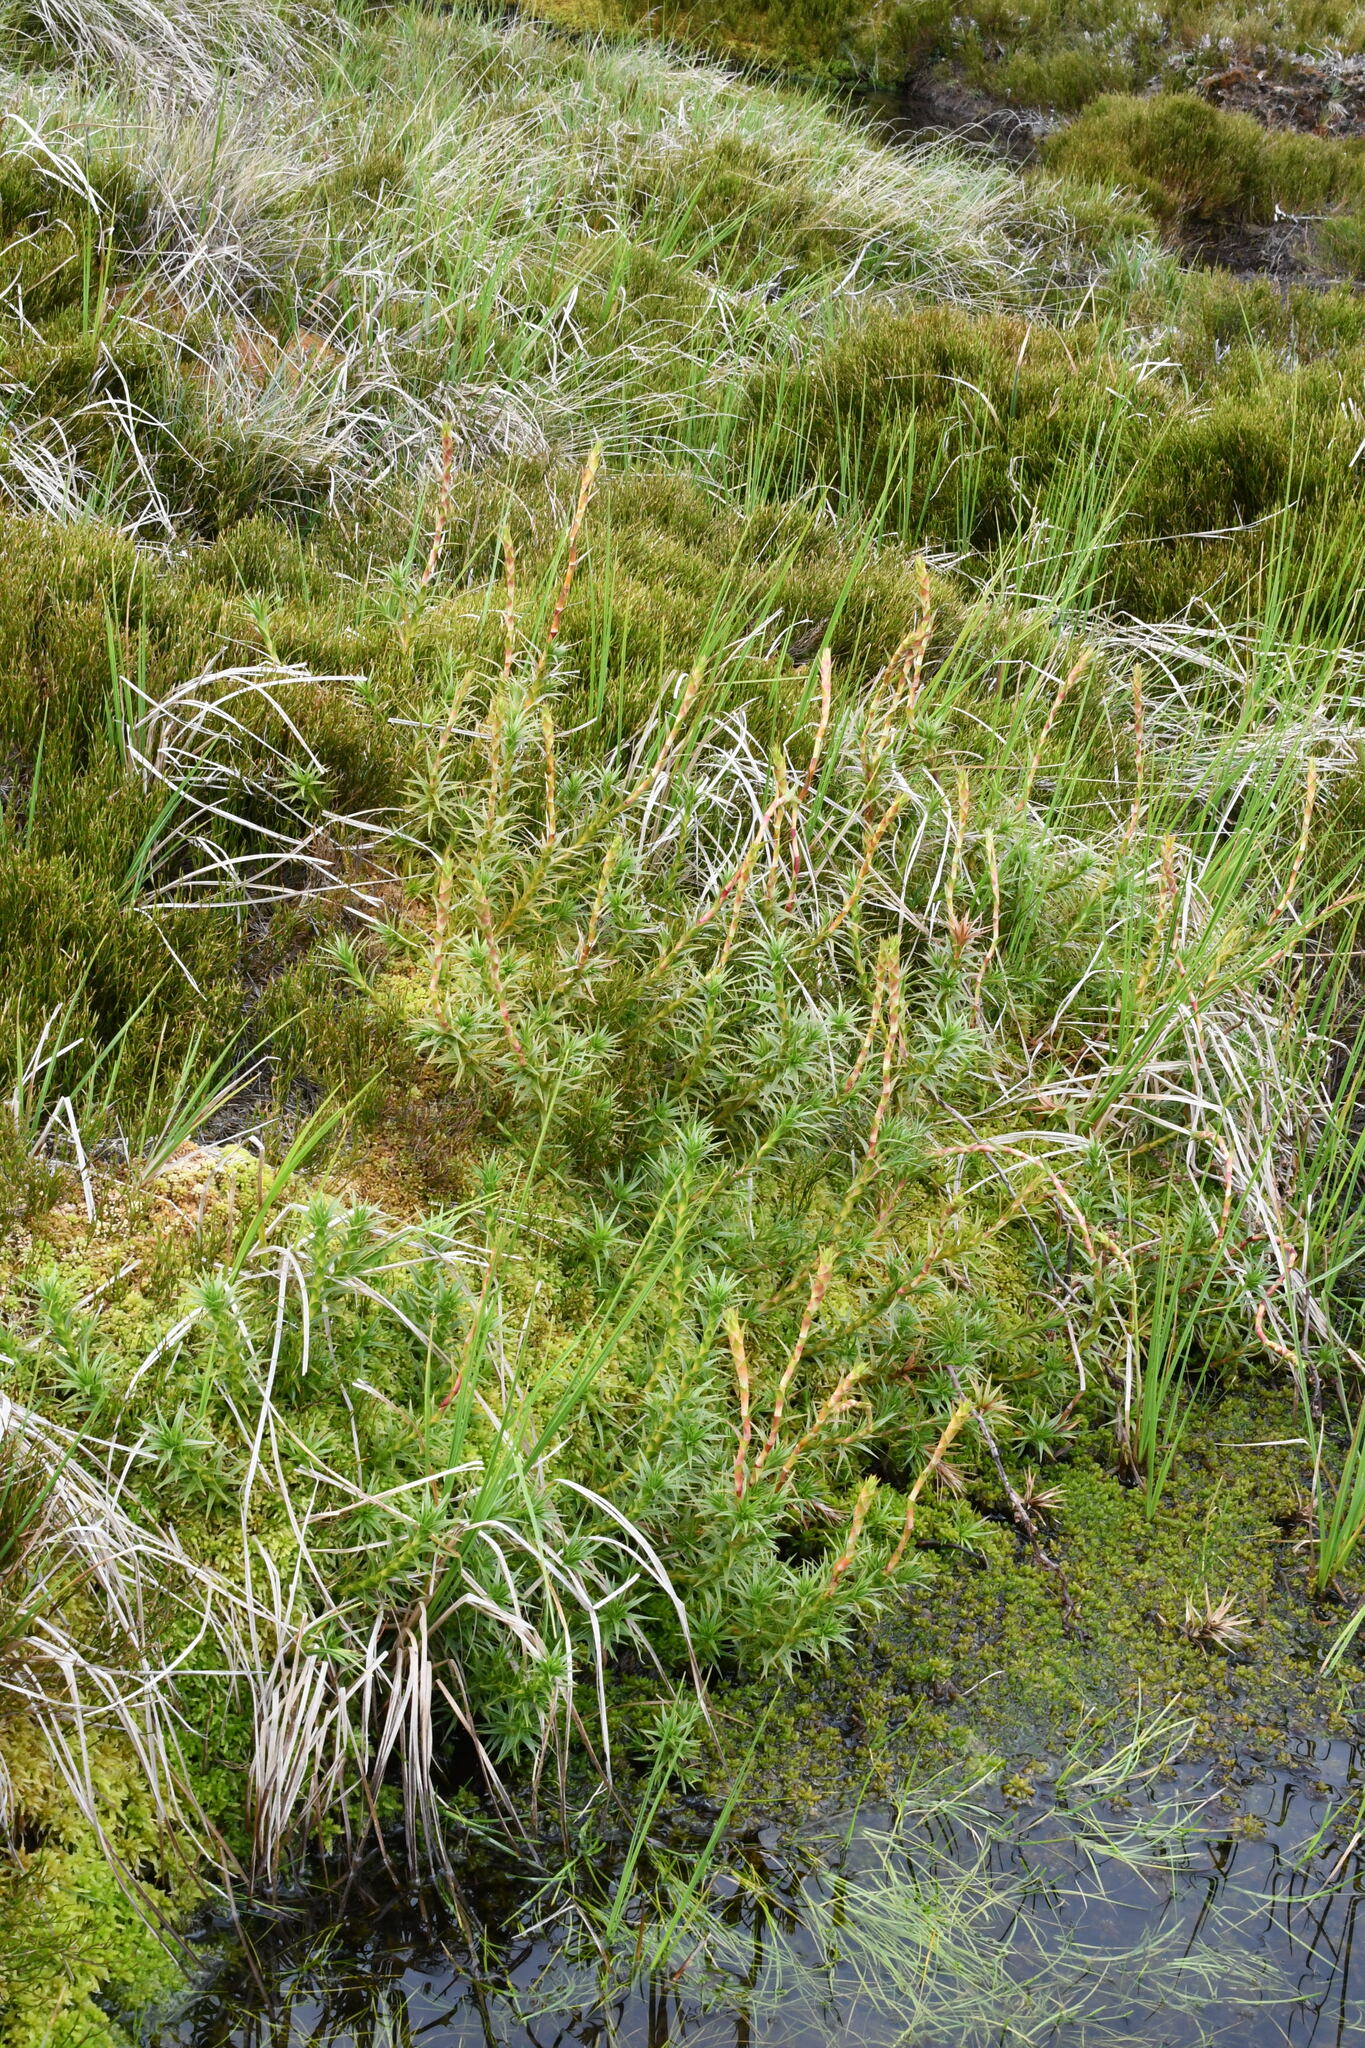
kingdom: Plantae
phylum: Tracheophyta
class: Magnoliopsida
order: Ericales
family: Ericaceae
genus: Dracophyllum
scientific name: Dracophyllum continentis
